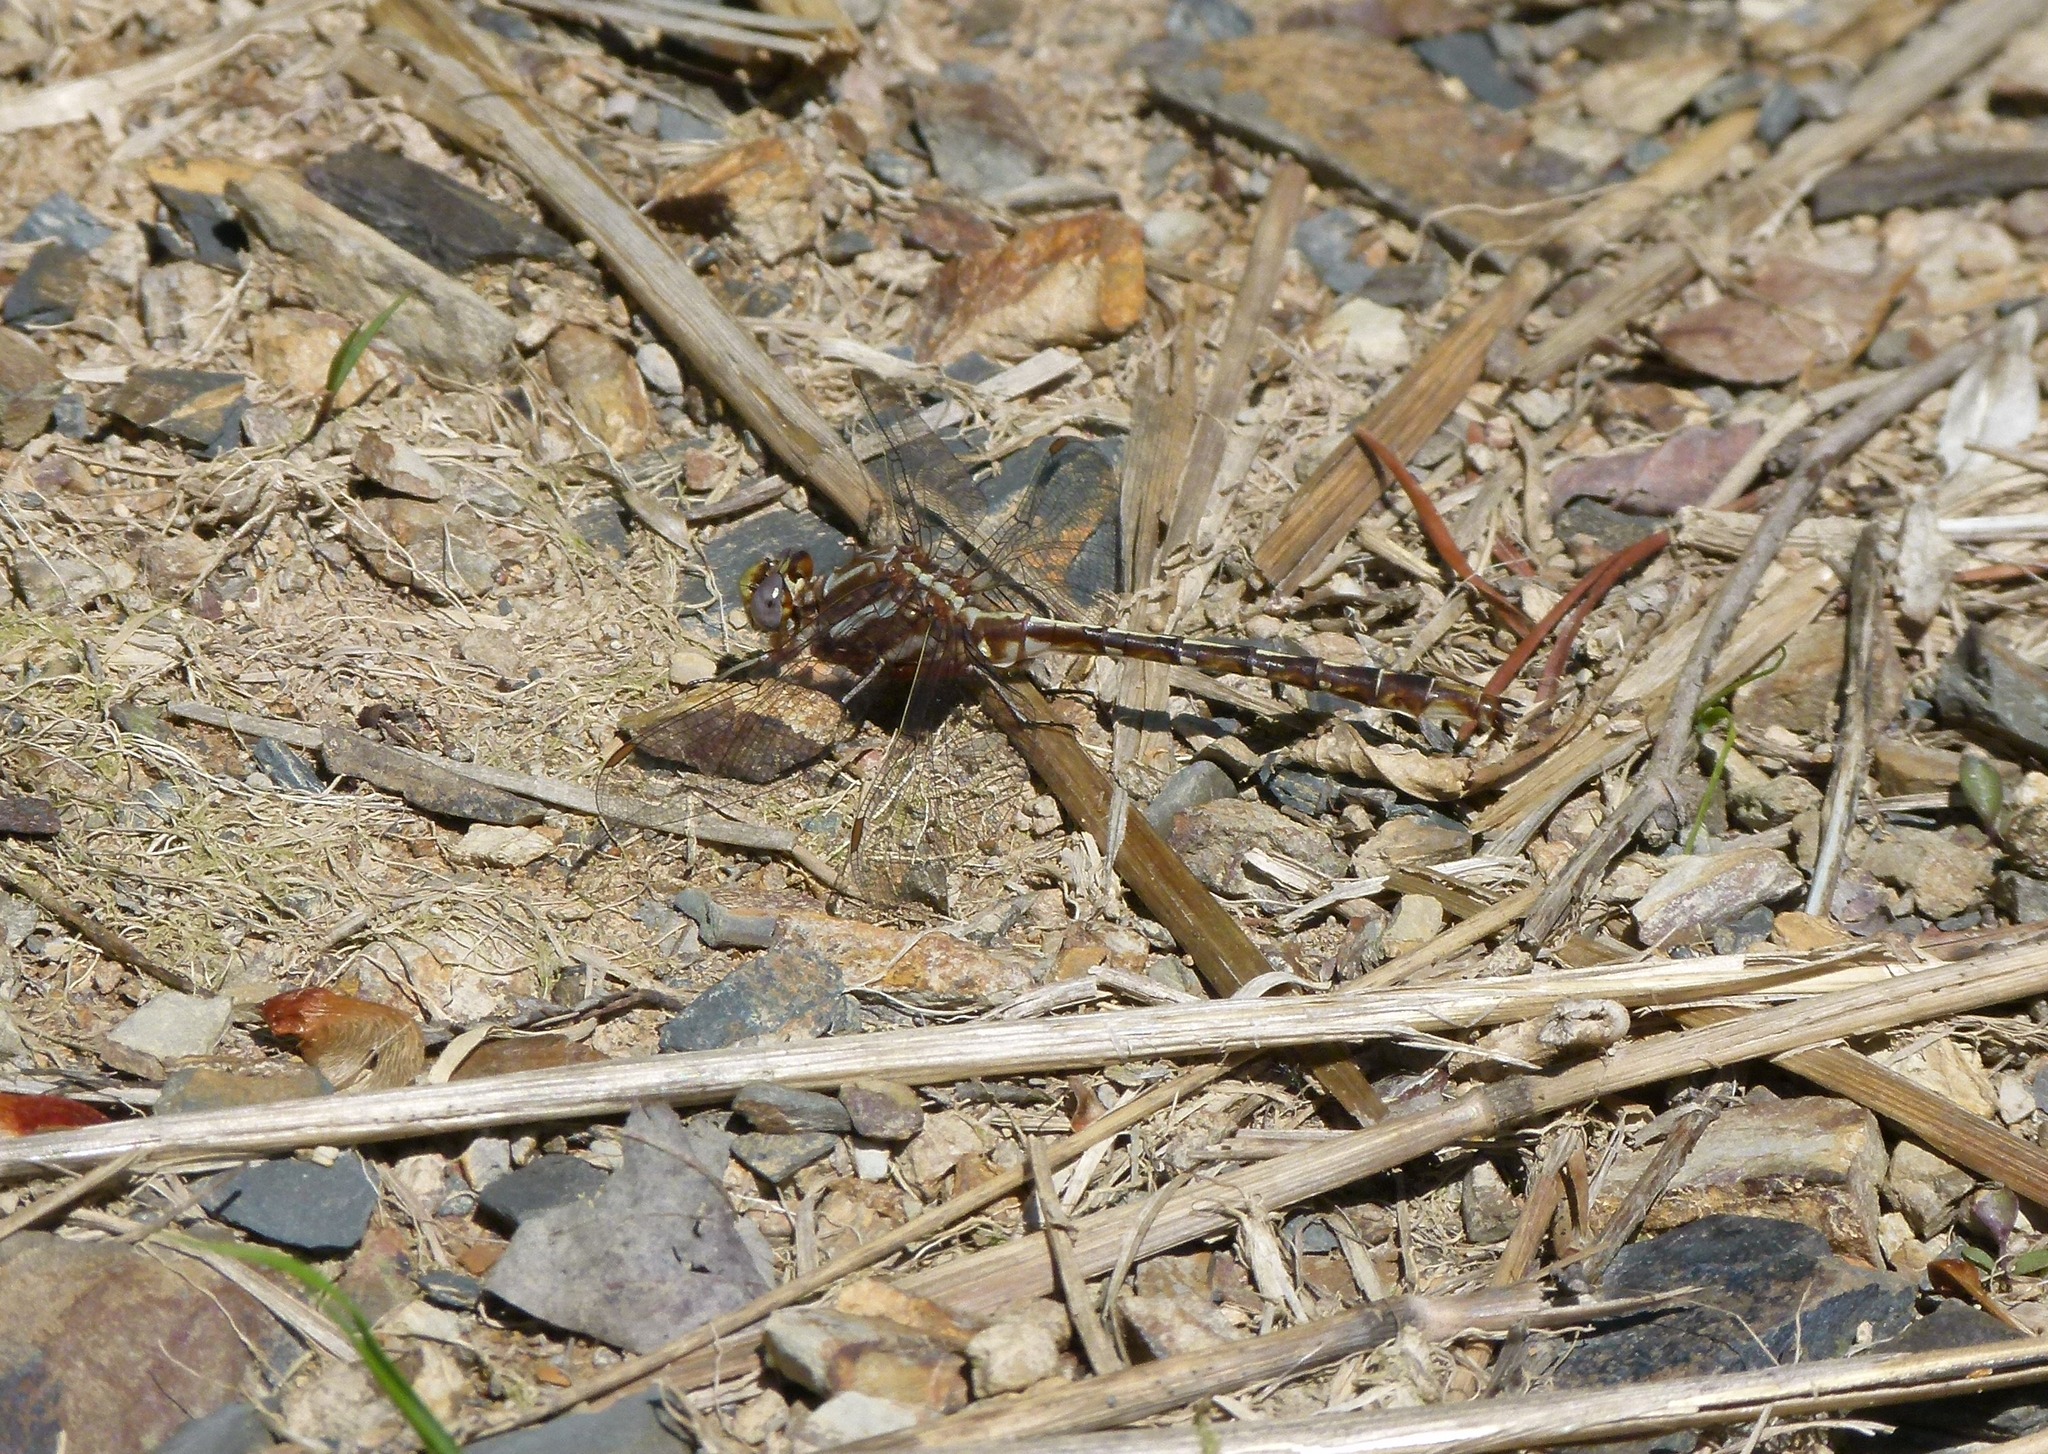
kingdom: Animalia
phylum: Arthropoda
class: Insecta
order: Odonata
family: Gomphidae
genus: Phanogomphus
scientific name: Phanogomphus lividus
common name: Ashy clubtail
